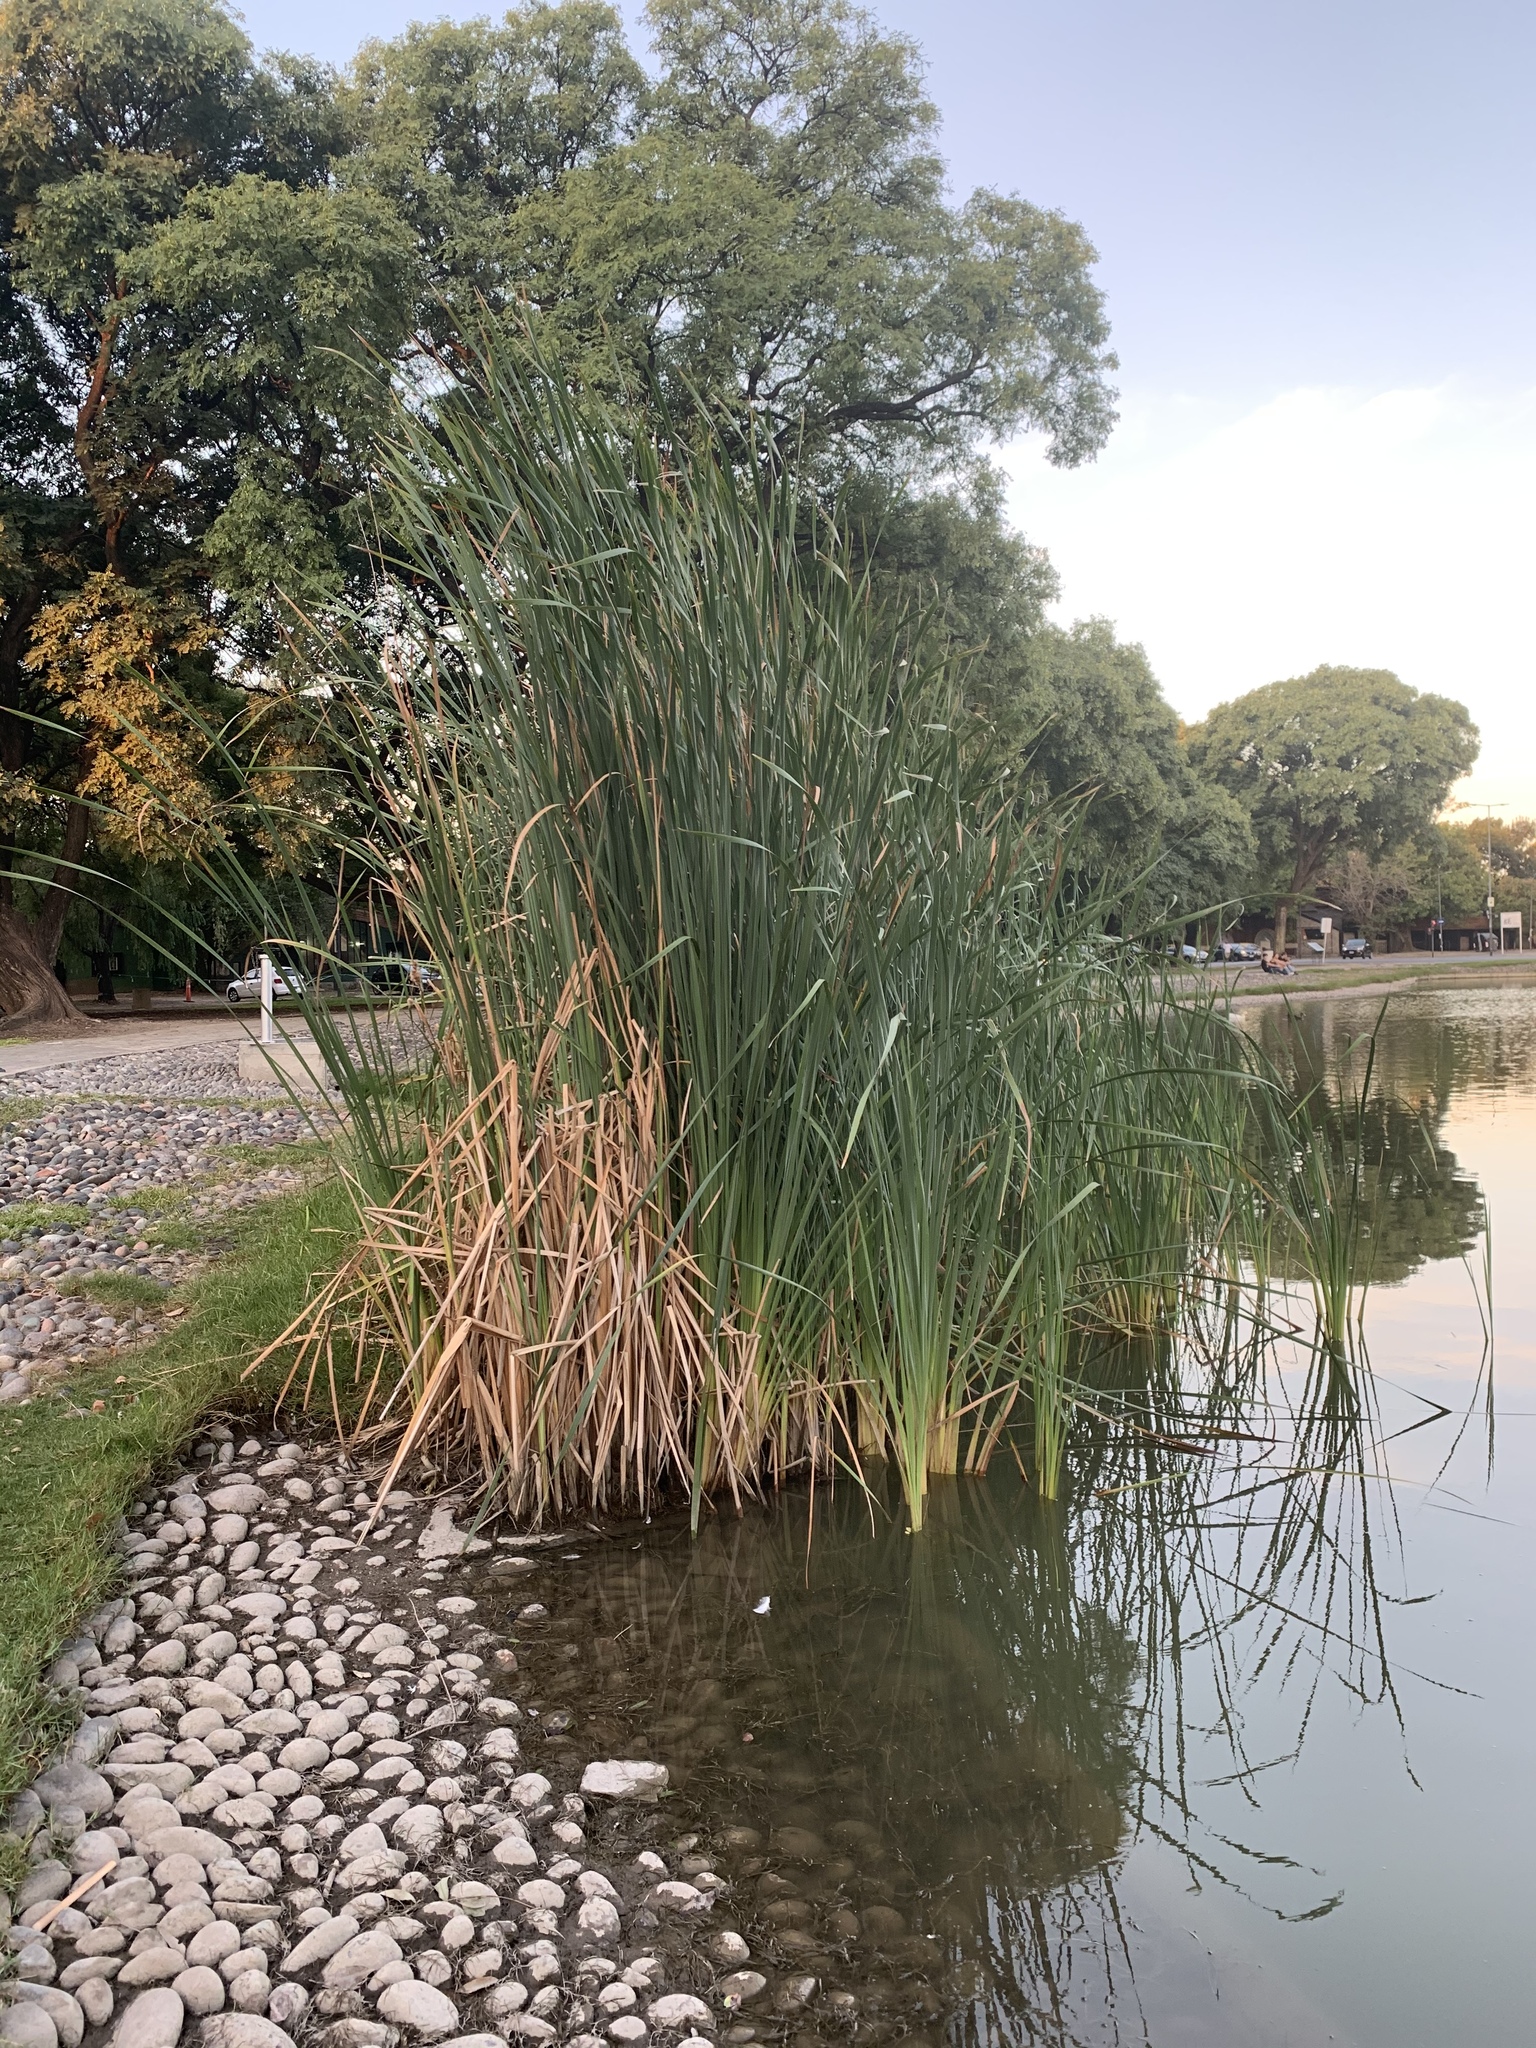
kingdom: Plantae
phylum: Tracheophyta
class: Liliopsida
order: Poales
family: Typhaceae
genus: Typha
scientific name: Typha latifolia
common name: Broadleaf cattail
